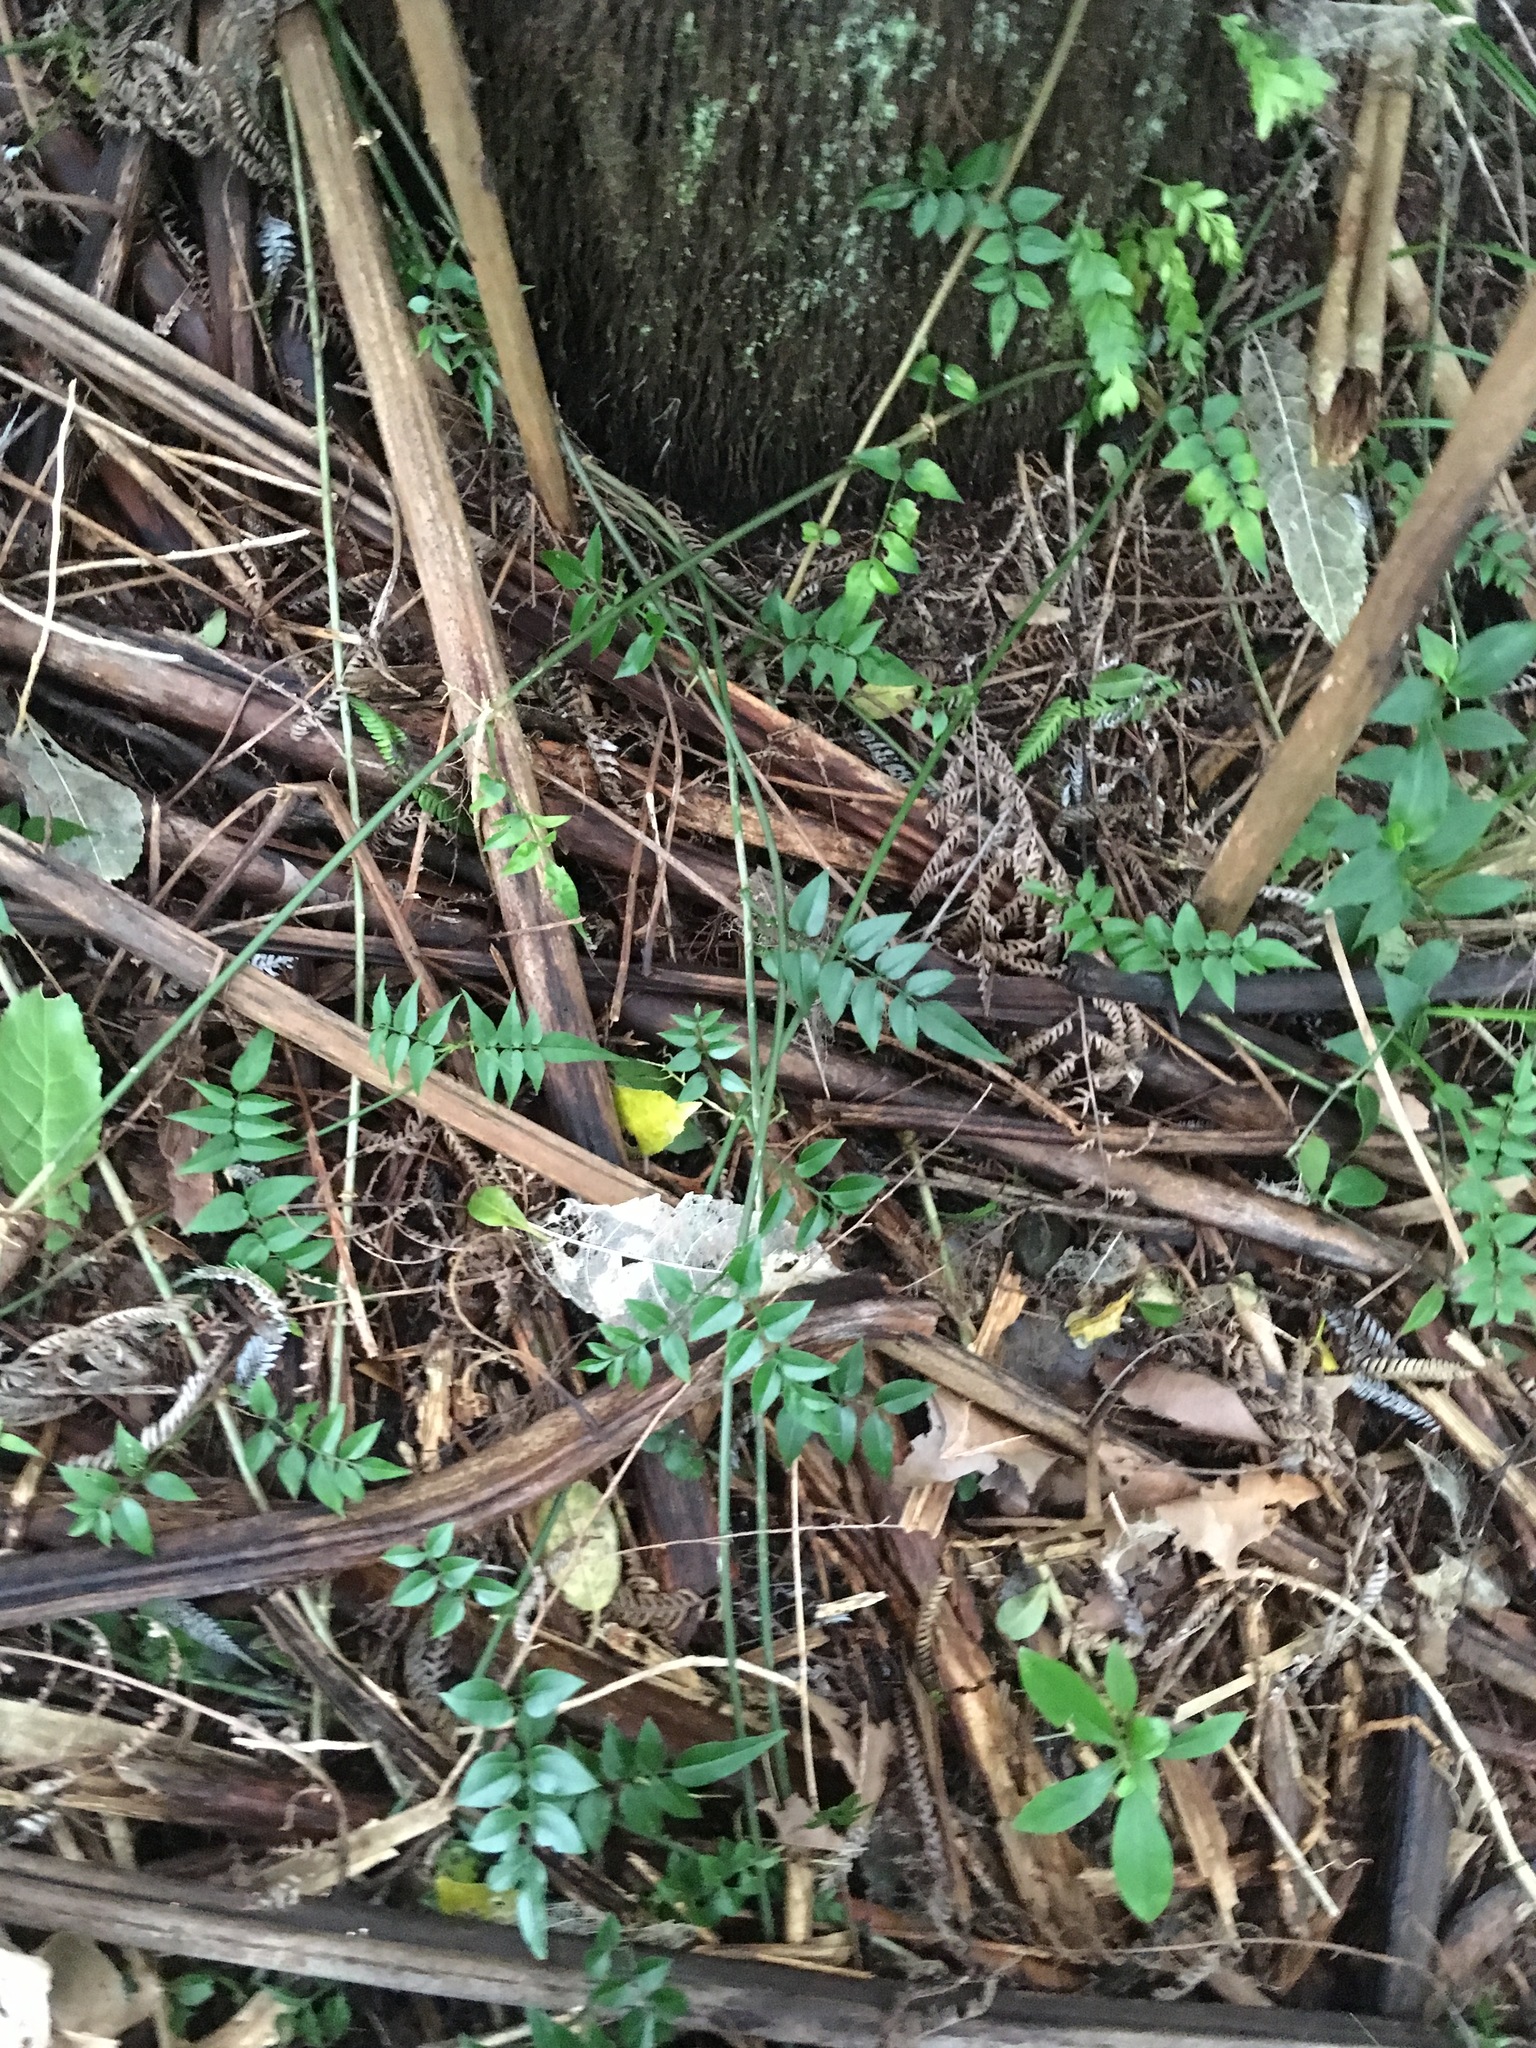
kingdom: Plantae
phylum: Tracheophyta
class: Magnoliopsida
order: Lamiales
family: Oleaceae
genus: Jasminum
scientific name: Jasminum polyanthum
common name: Pink jasmine
